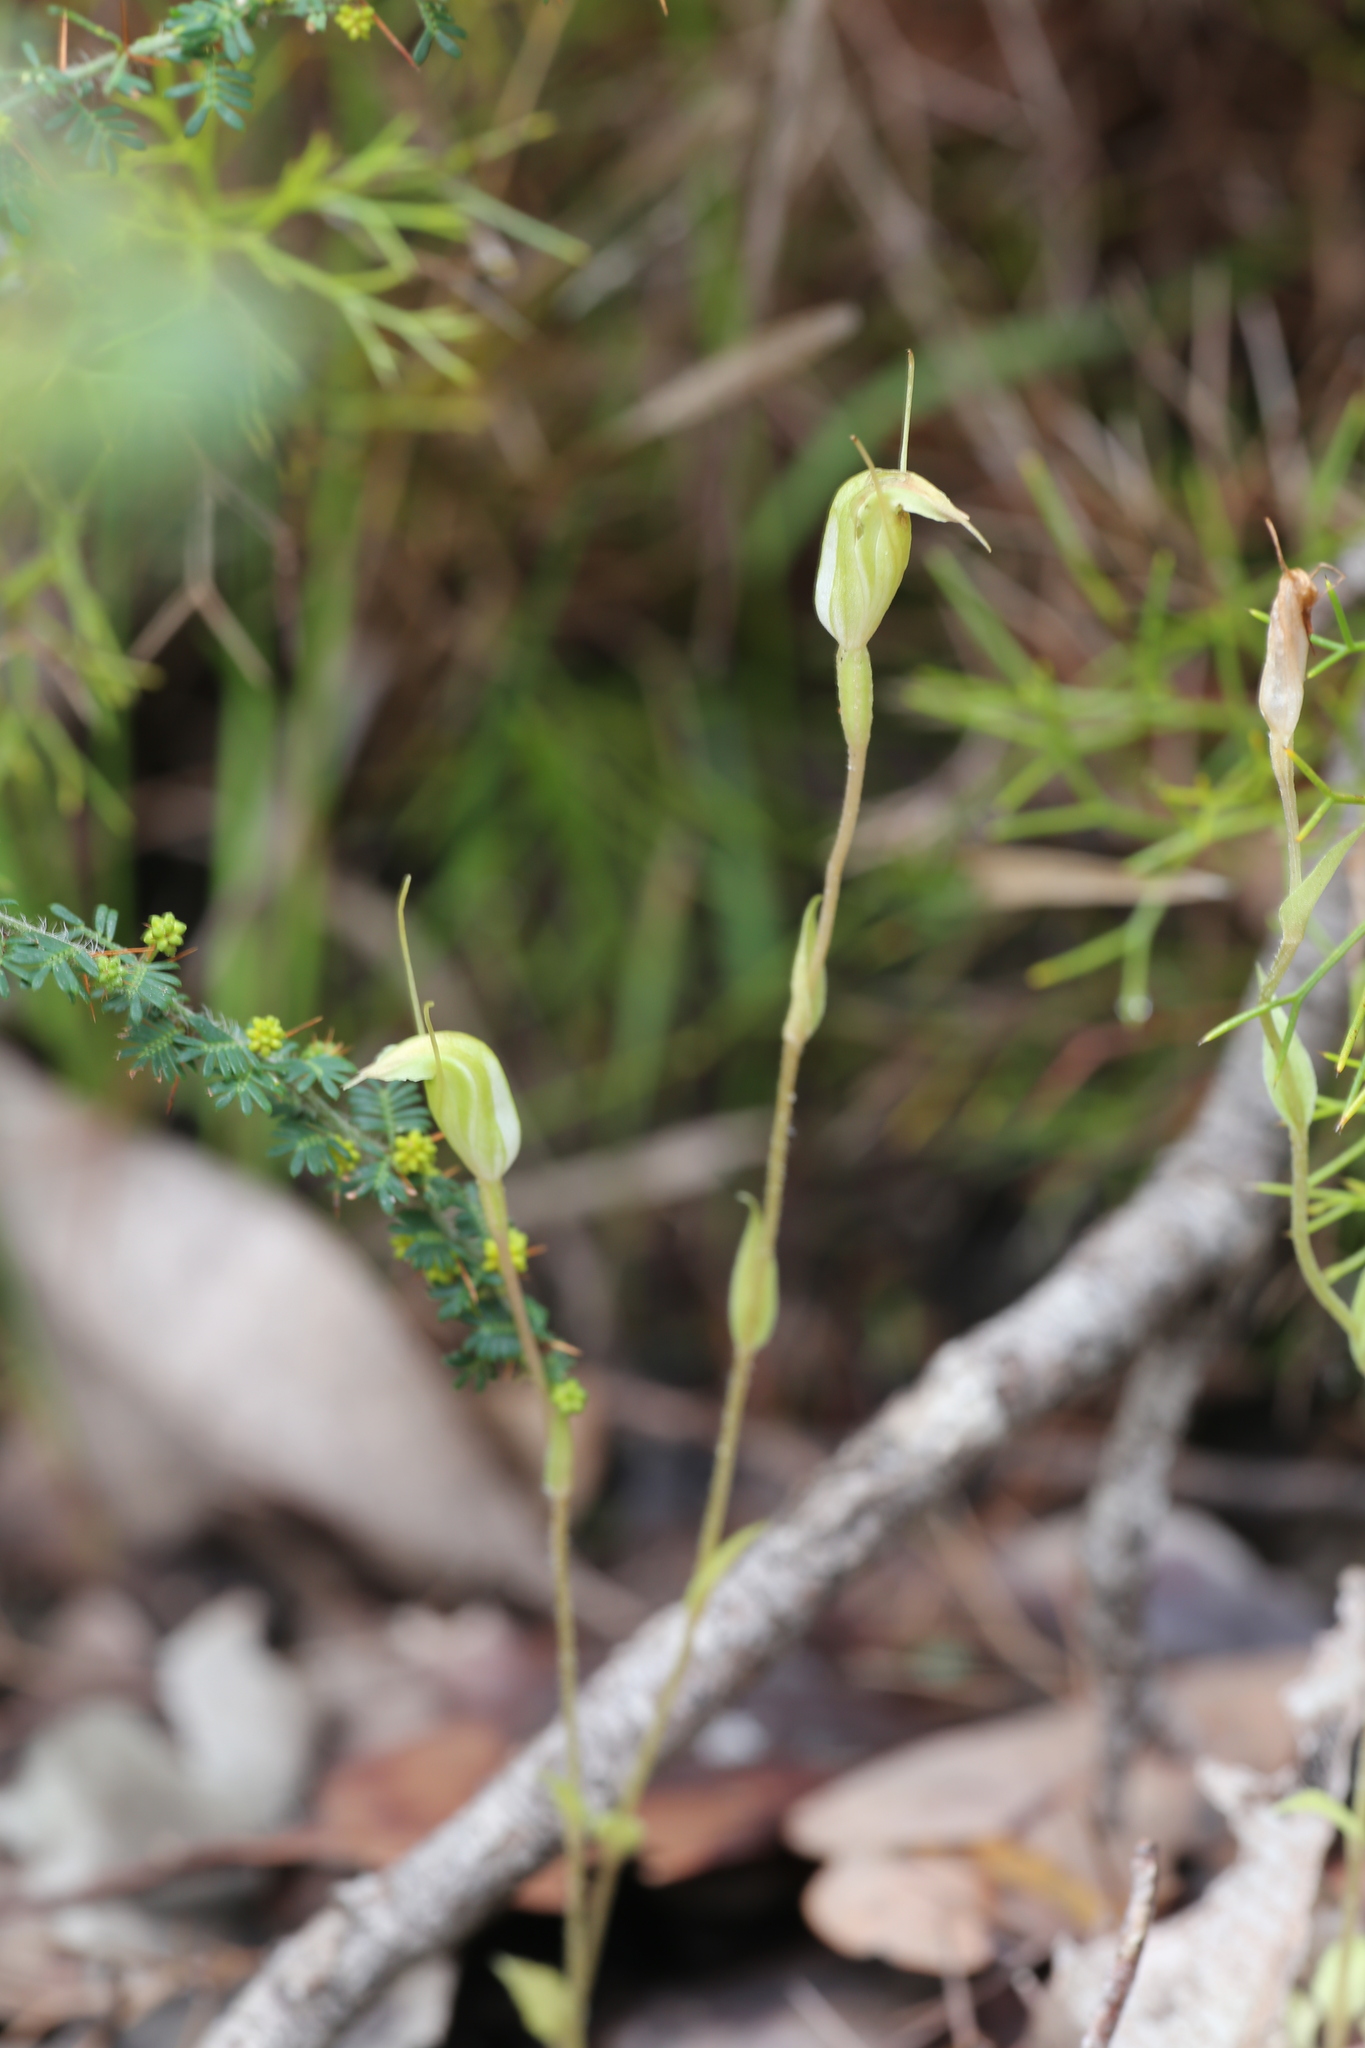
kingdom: Plantae
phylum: Tracheophyta
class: Liliopsida
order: Asparagales
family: Orchidaceae
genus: Pterostylis
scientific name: Pterostylis crispula
